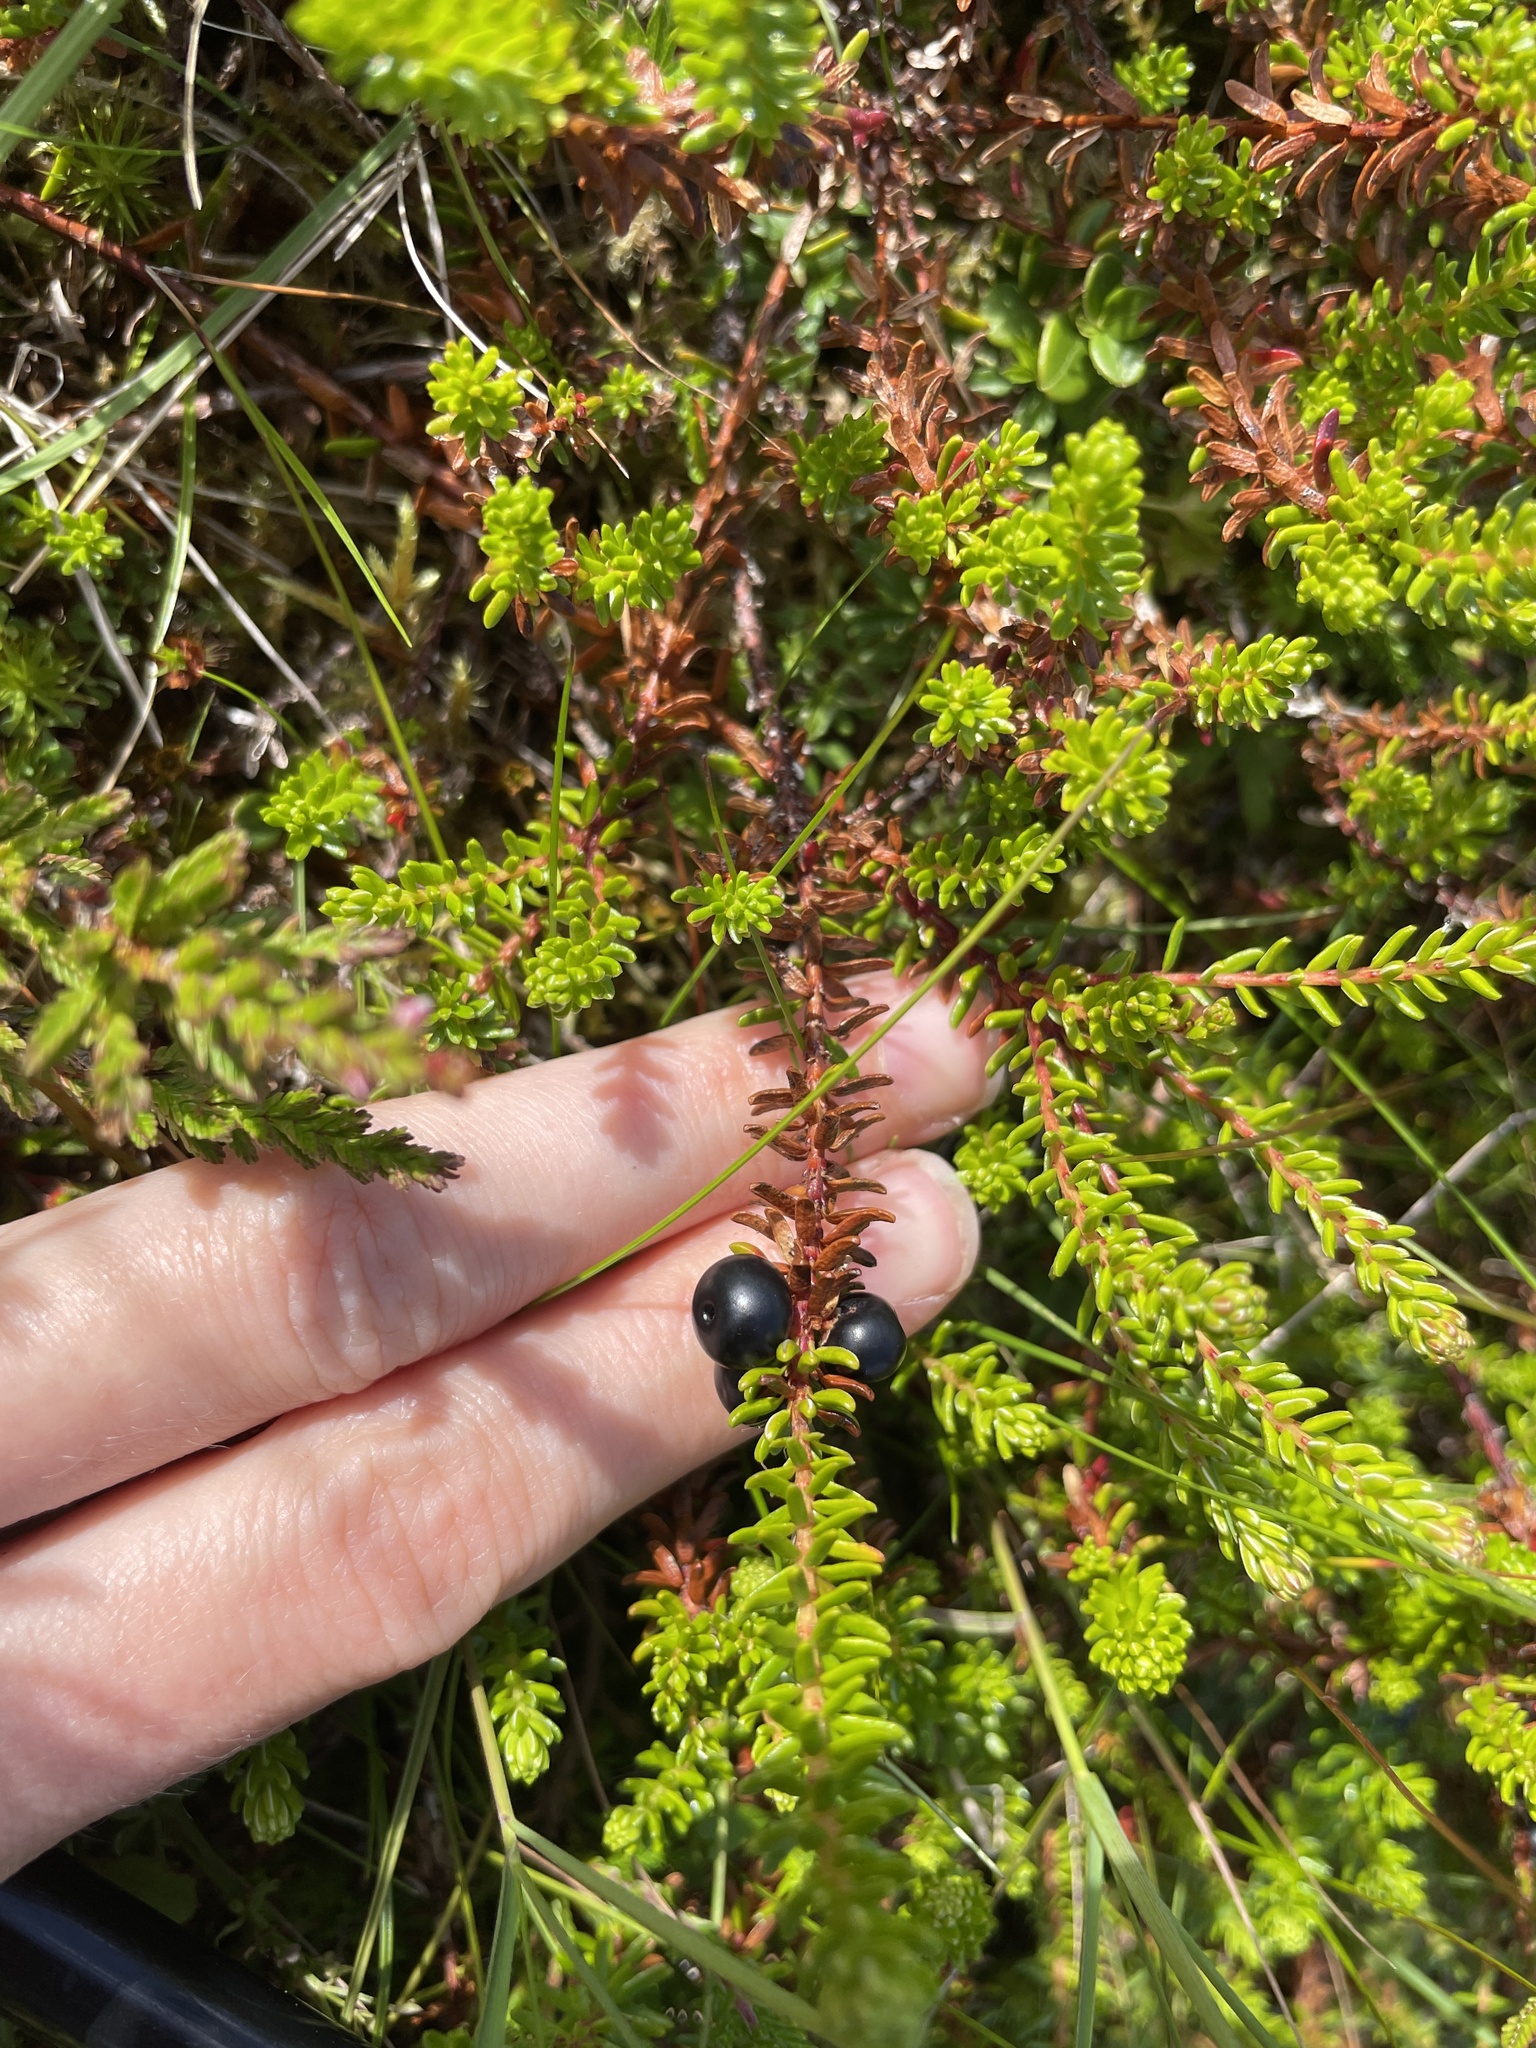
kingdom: Plantae
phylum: Tracheophyta
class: Magnoliopsida
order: Ericales
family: Ericaceae
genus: Empetrum
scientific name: Empetrum nigrum
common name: Black crowberry
